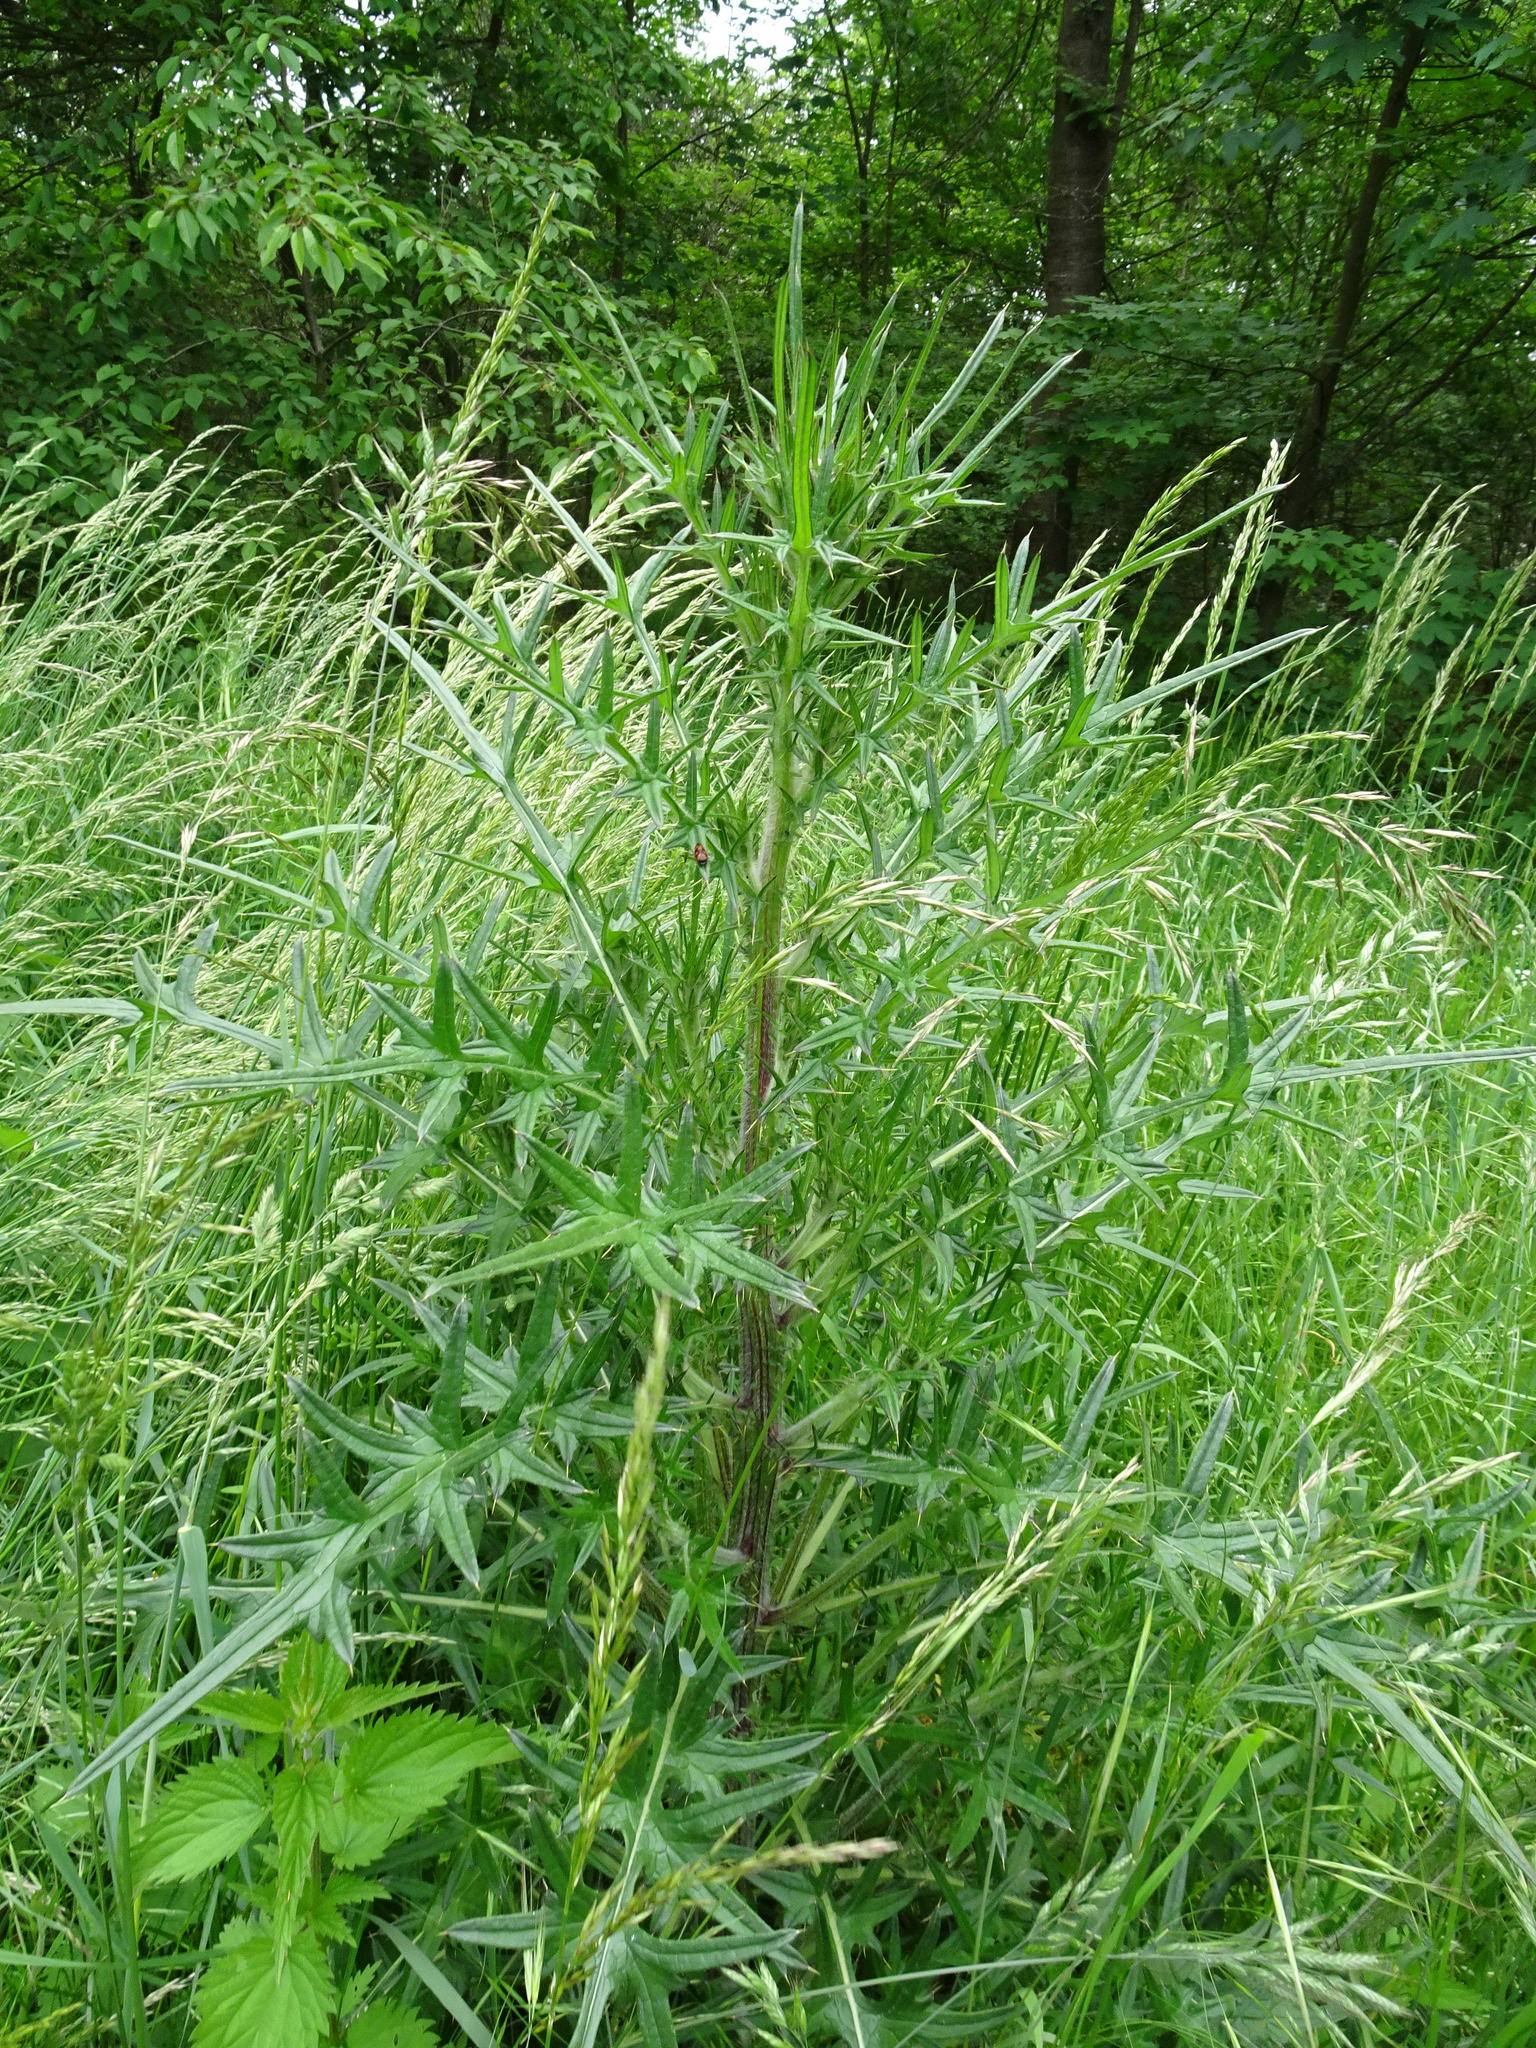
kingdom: Plantae
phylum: Tracheophyta
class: Magnoliopsida
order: Asterales
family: Asteraceae
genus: Cirsium
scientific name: Cirsium vulgare
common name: Bull thistle
